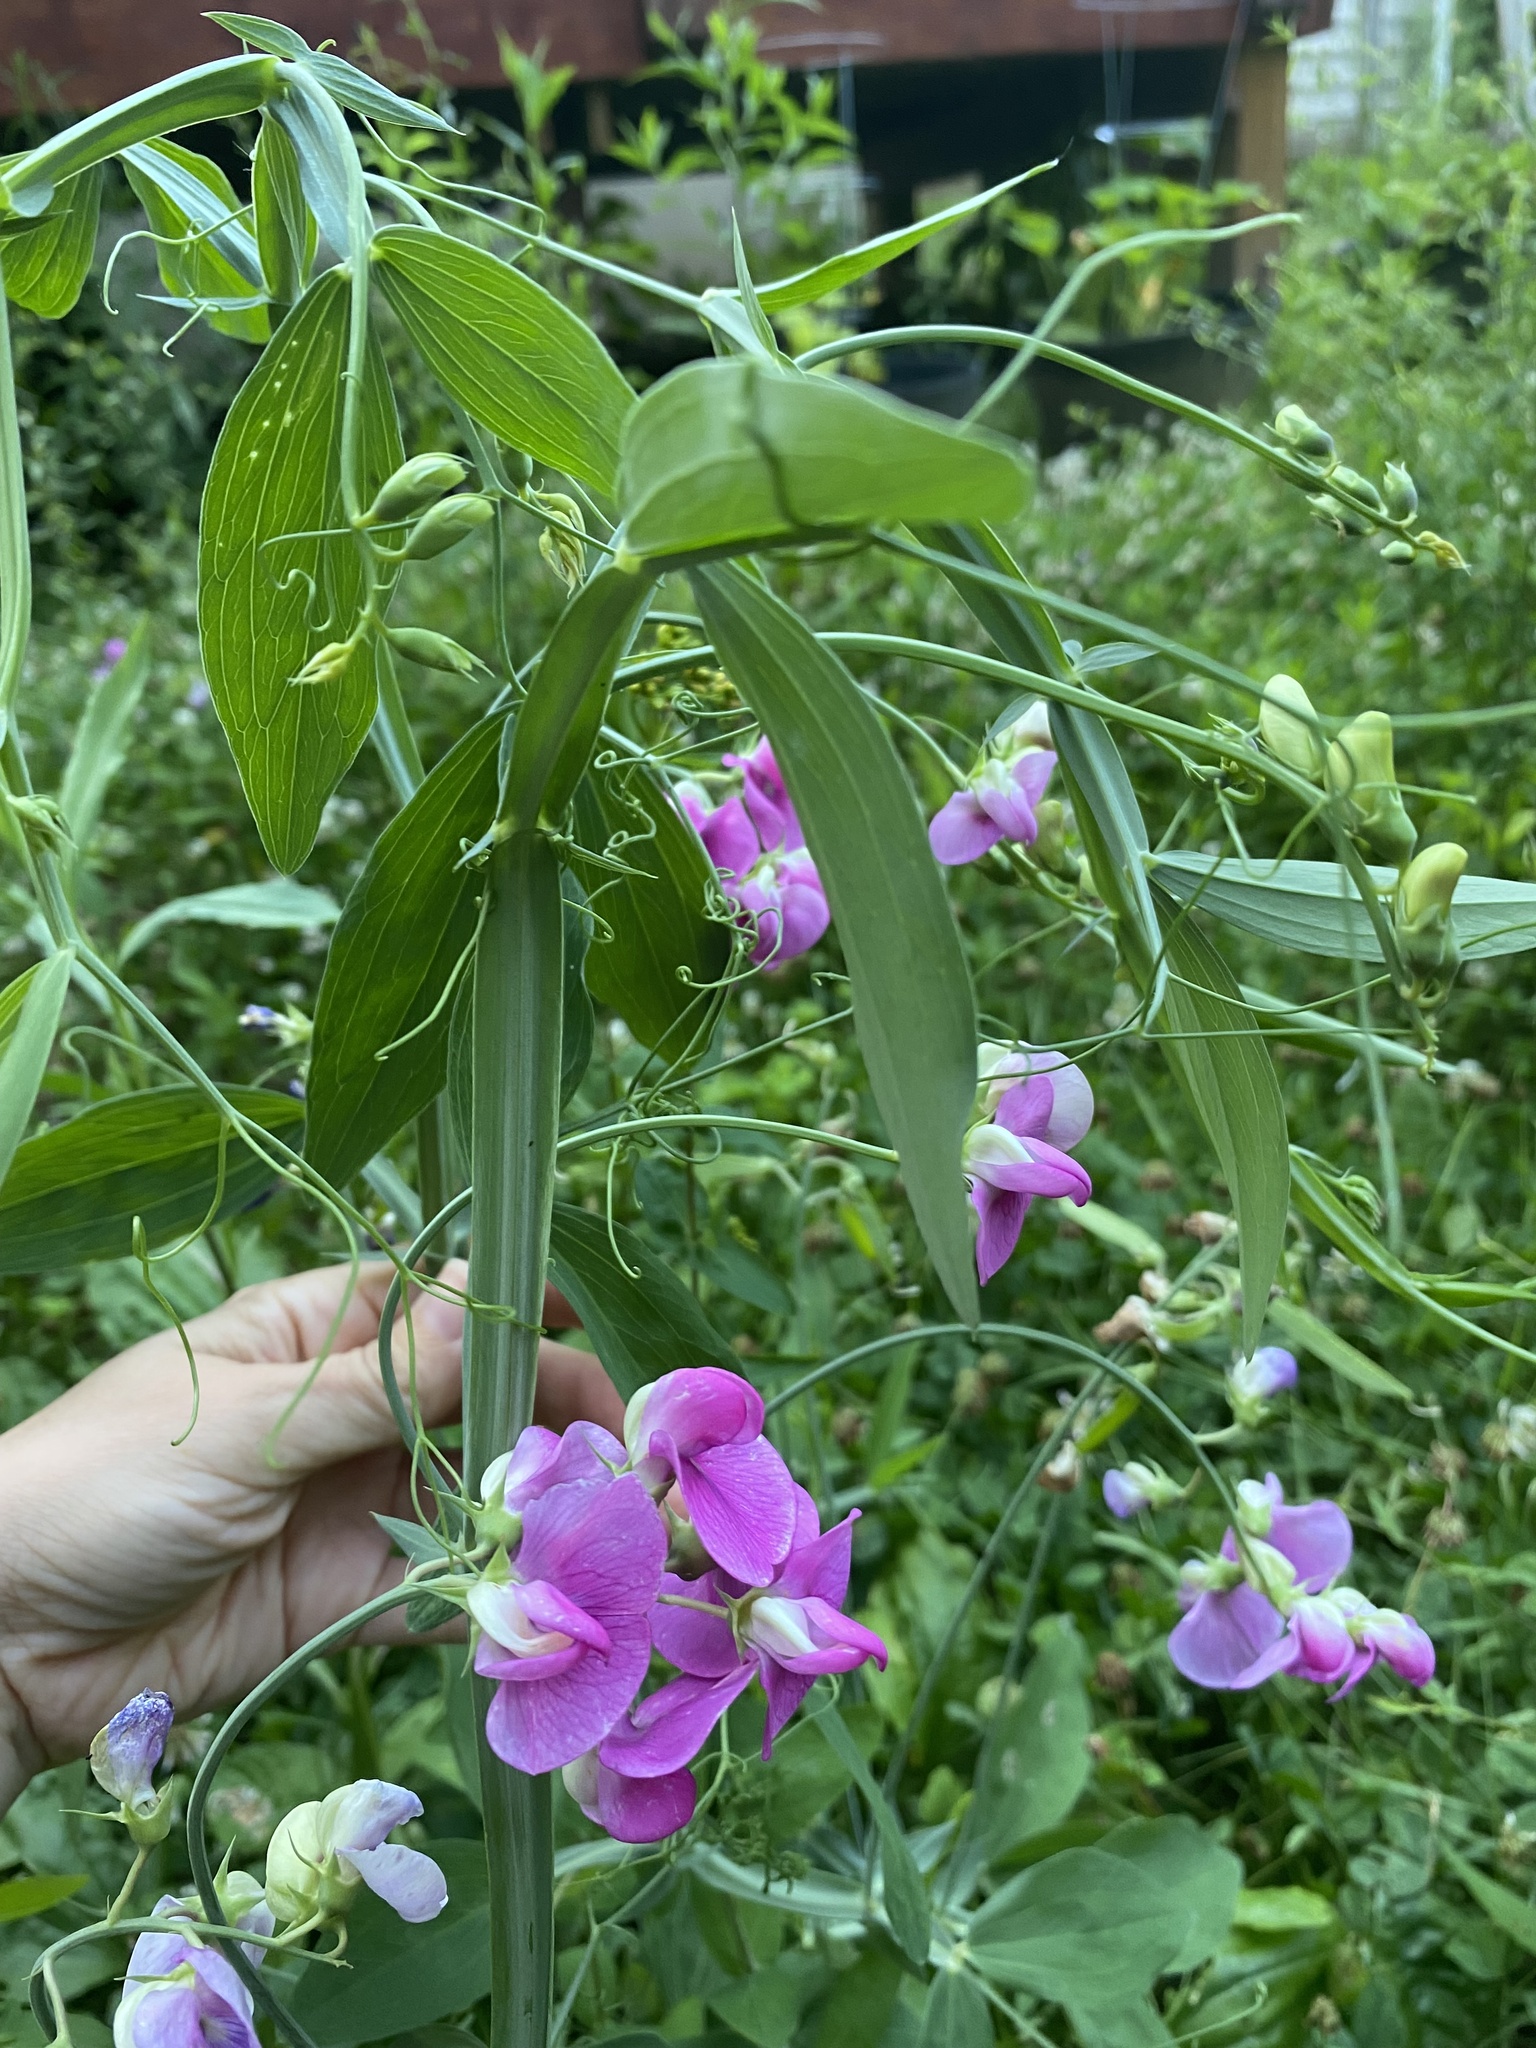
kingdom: Plantae
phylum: Tracheophyta
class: Magnoliopsida
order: Fabales
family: Fabaceae
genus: Lathyrus
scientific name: Lathyrus latifolius
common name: Perennial pea
